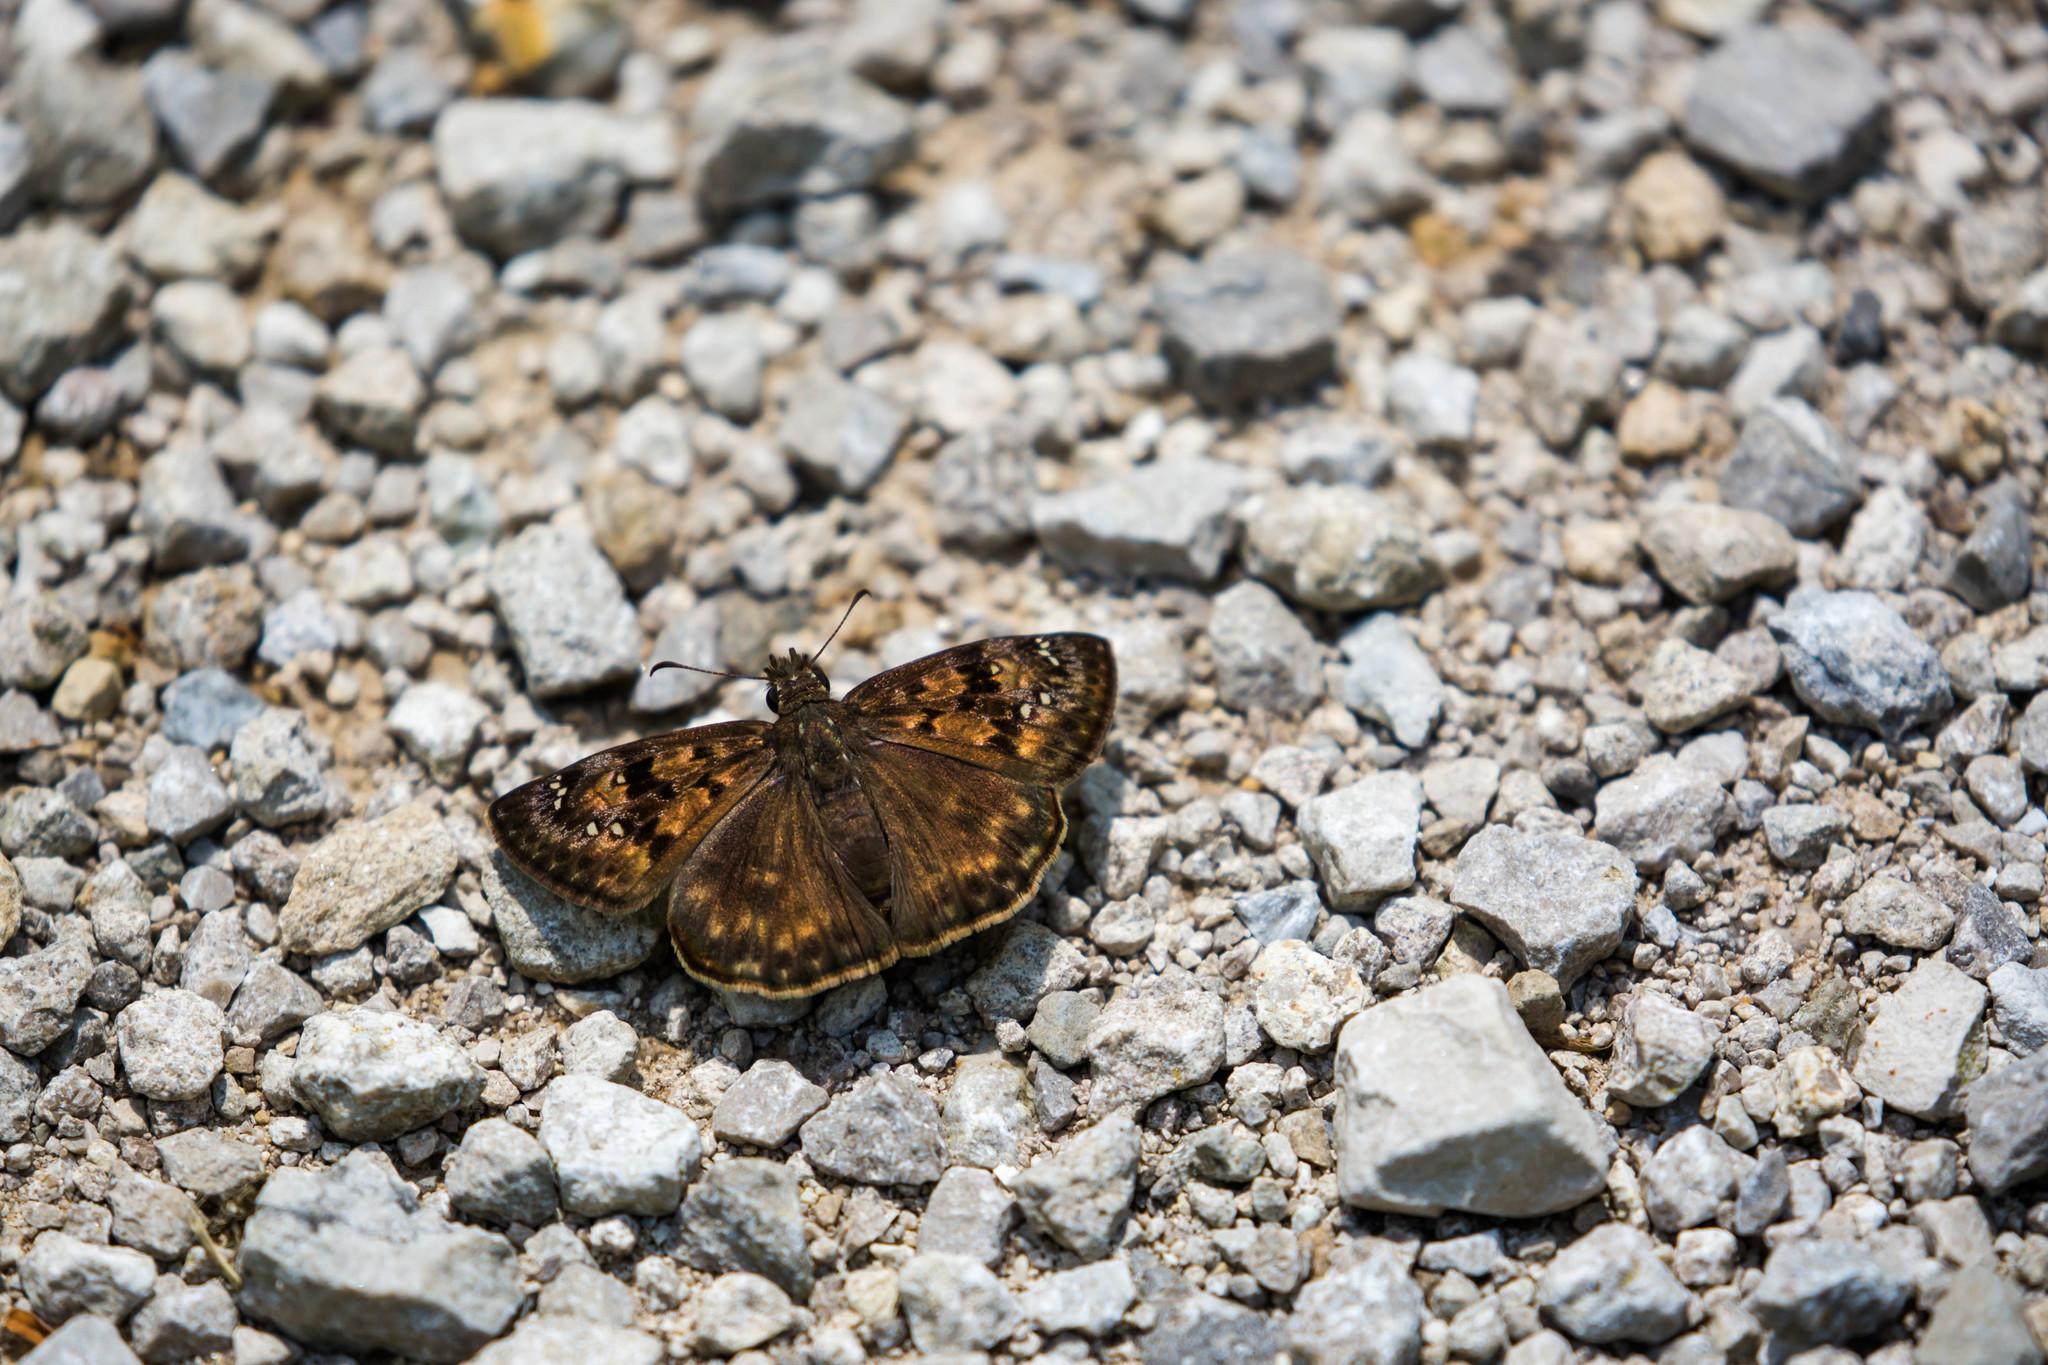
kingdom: Animalia
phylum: Arthropoda
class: Insecta
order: Lepidoptera
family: Hesperiidae
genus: Erynnis
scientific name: Erynnis horatius
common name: Horace's duskywing
